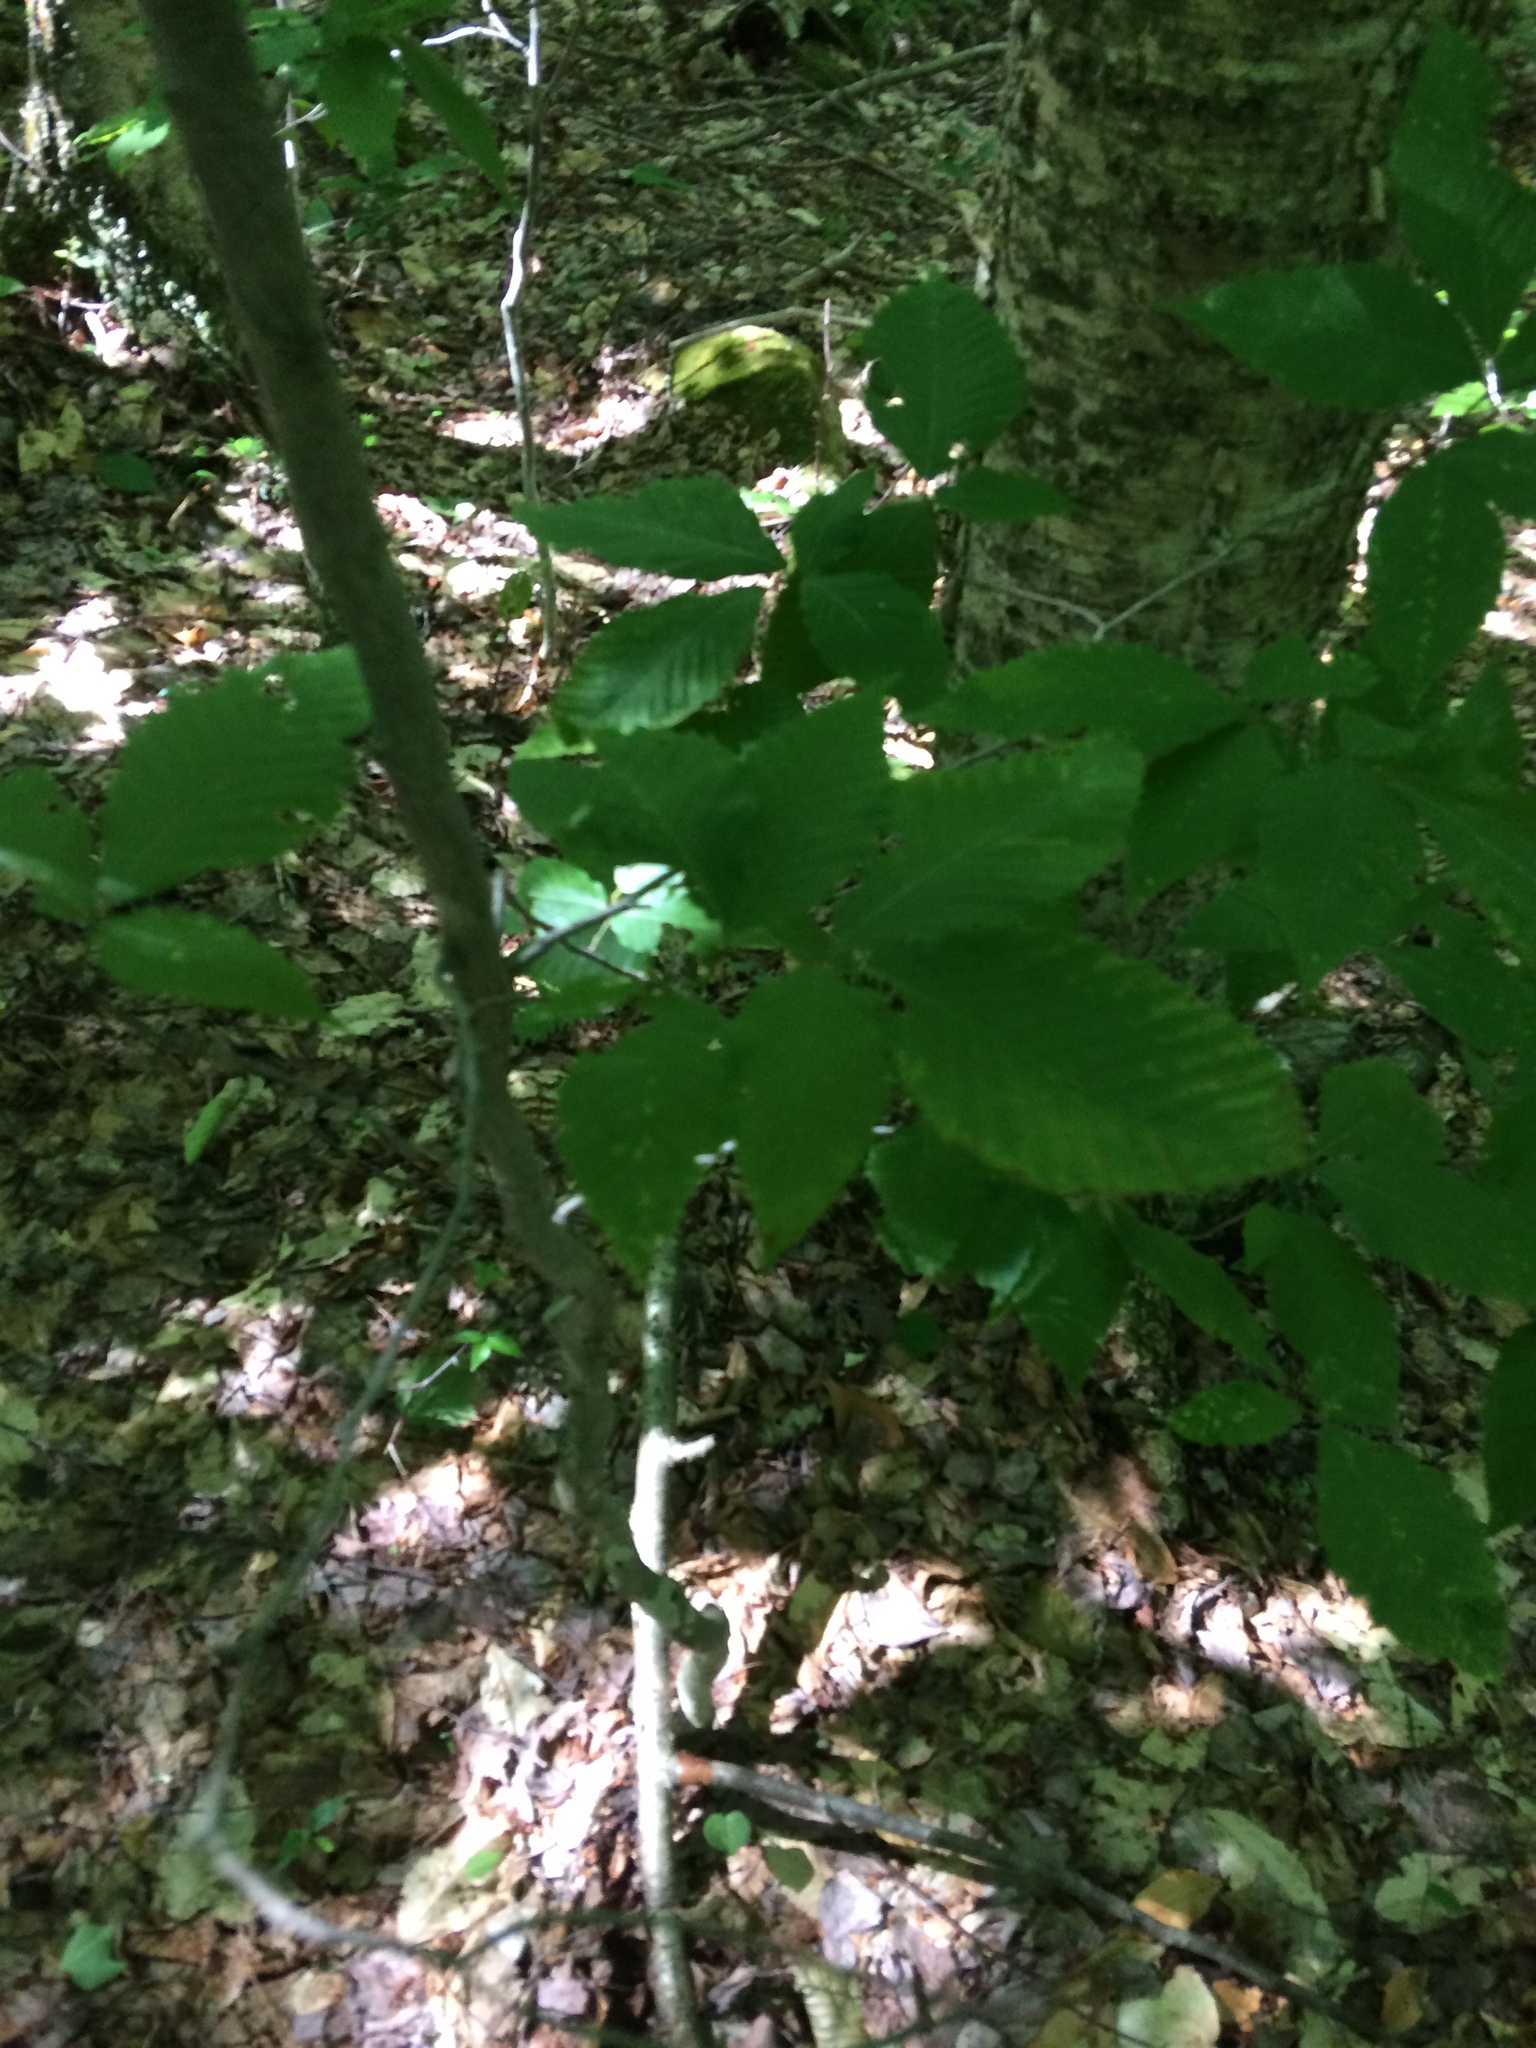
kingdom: Plantae
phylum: Tracheophyta
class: Magnoliopsida
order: Fagales
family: Fagaceae
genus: Fagus
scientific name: Fagus grandifolia
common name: American beech
